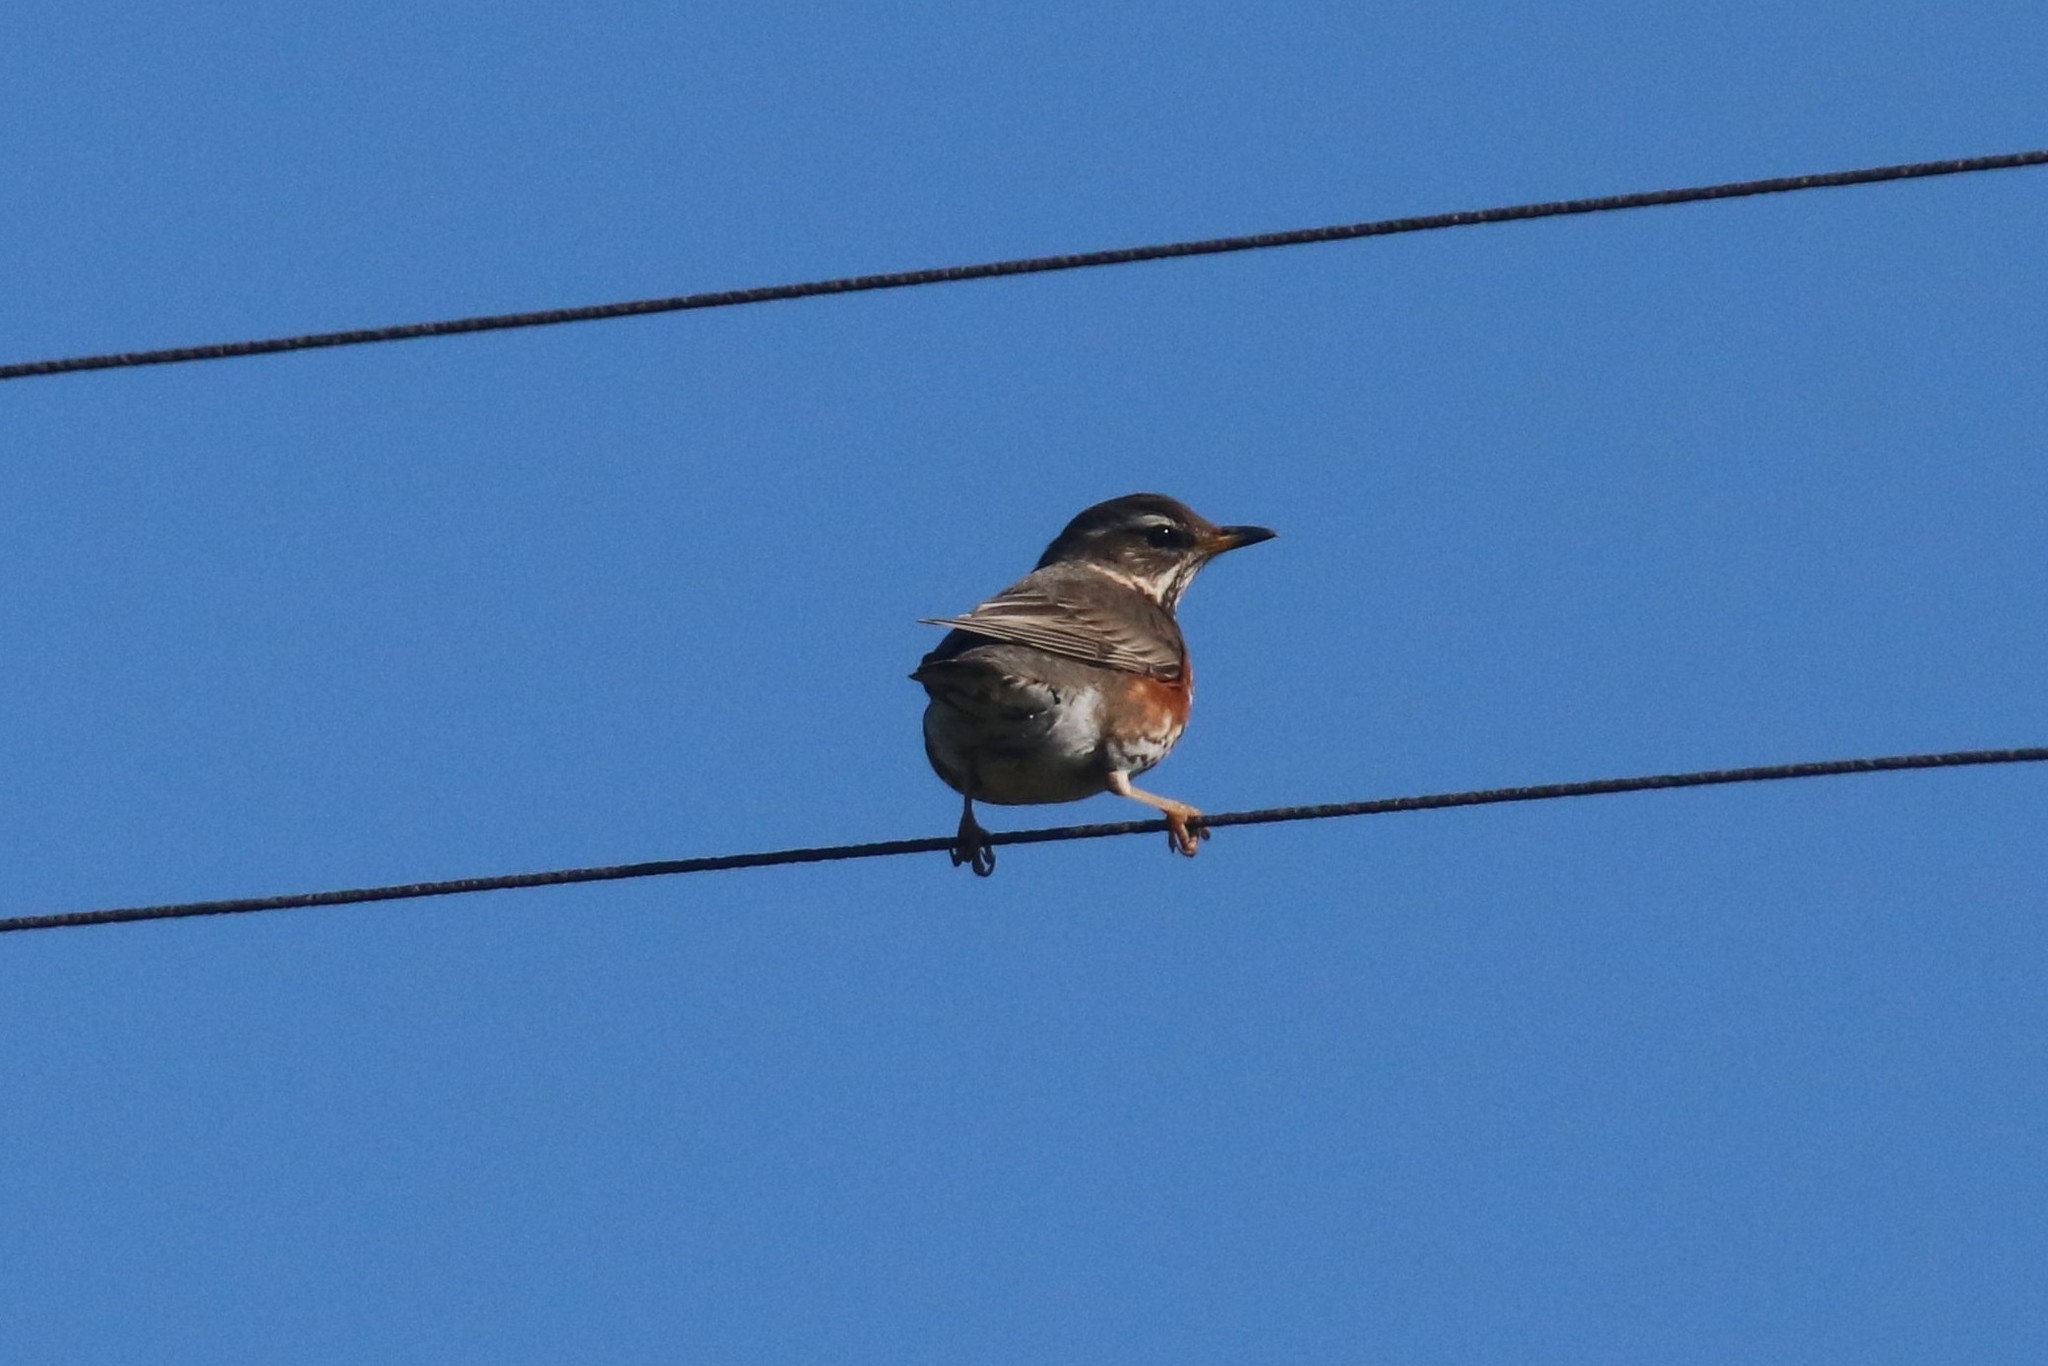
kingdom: Animalia
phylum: Chordata
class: Aves
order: Passeriformes
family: Turdidae
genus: Turdus
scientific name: Turdus iliacus
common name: Redwing
